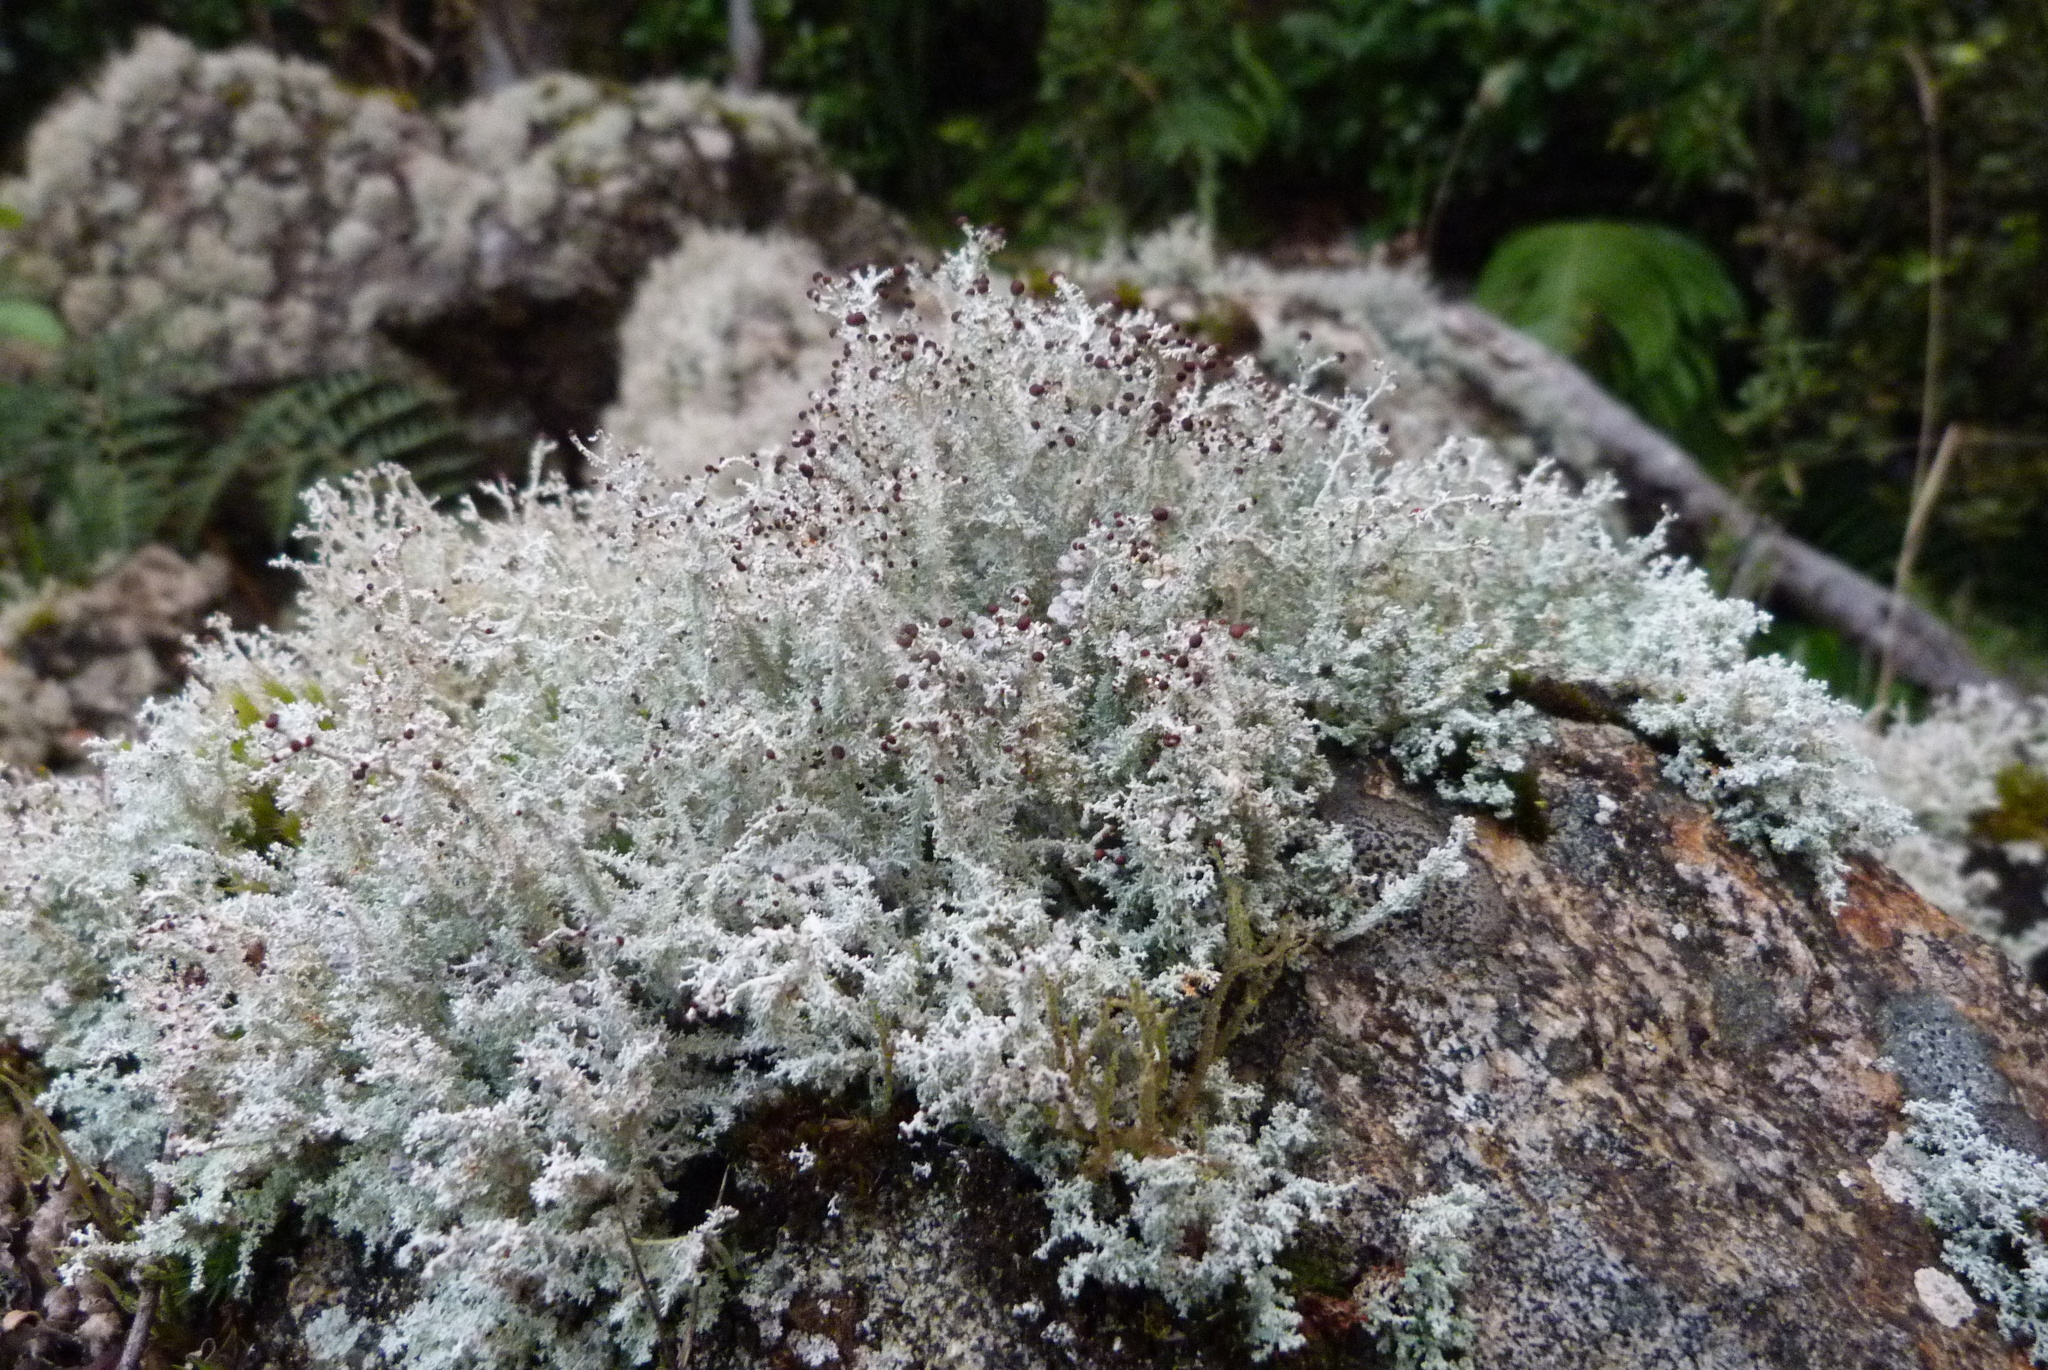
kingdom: Fungi
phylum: Ascomycota
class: Lecanoromycetes
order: Lecanorales
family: Stereocaulaceae
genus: Stereocaulon
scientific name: Stereocaulon ramulosum
